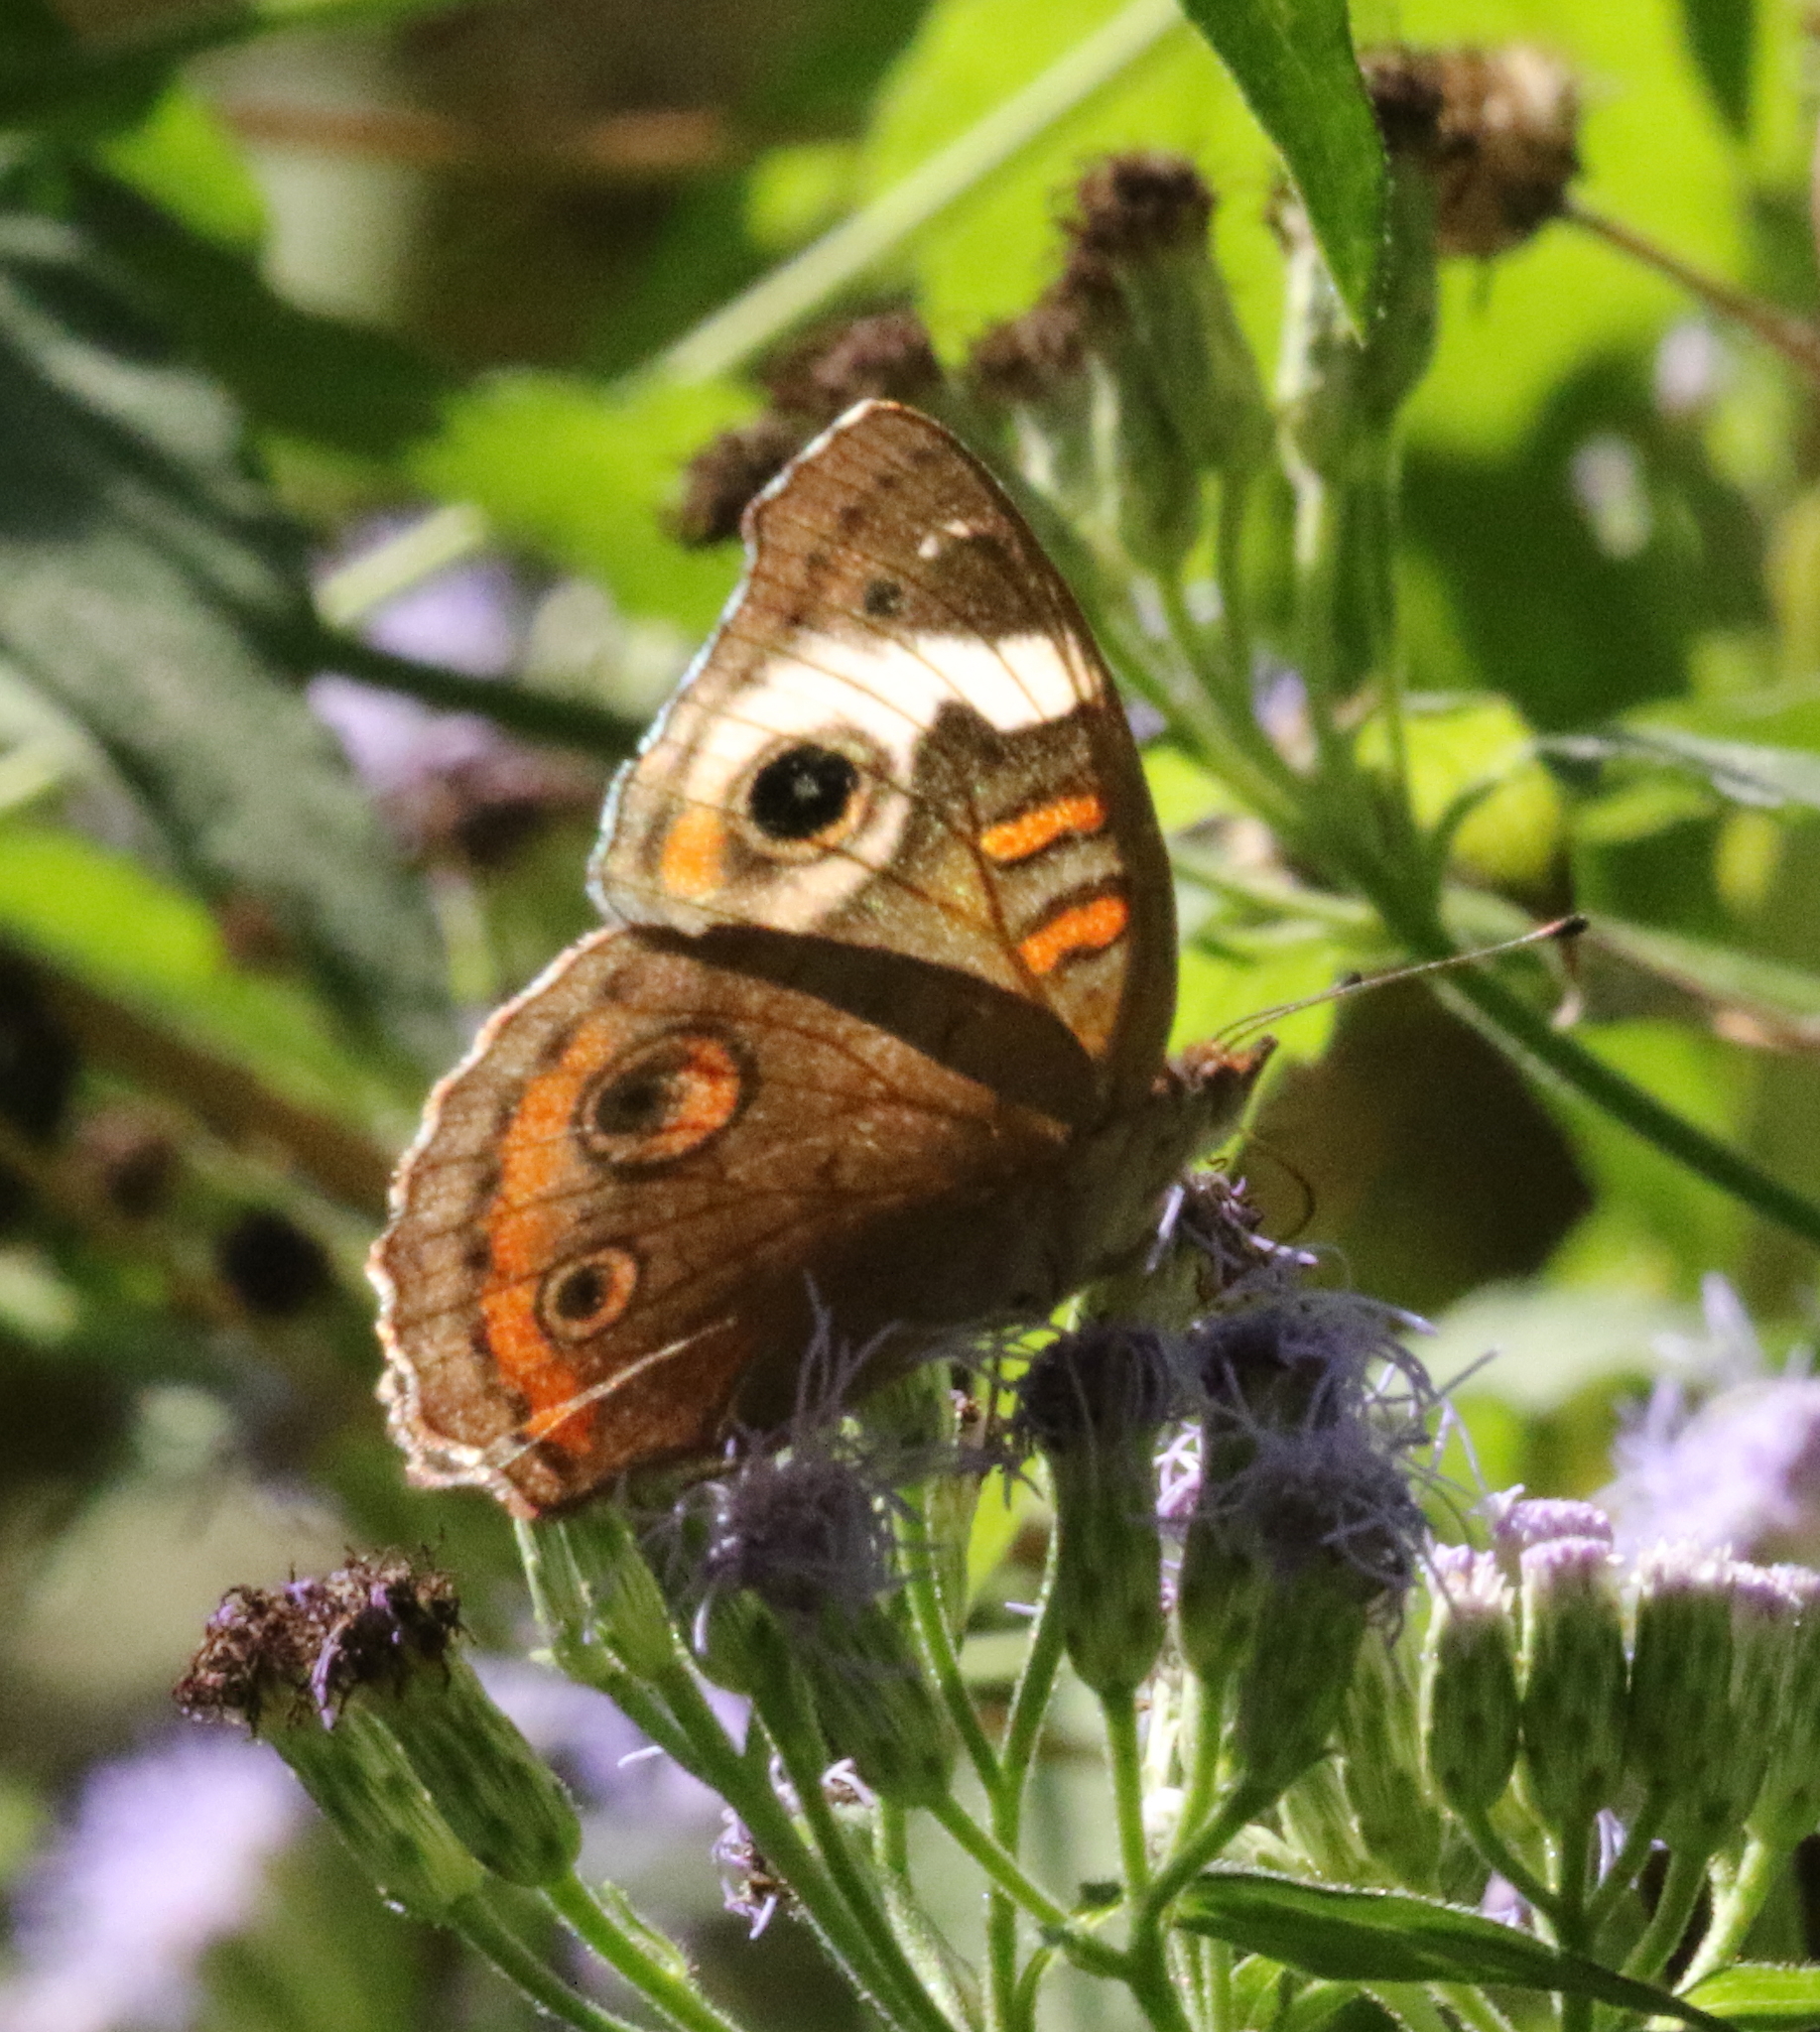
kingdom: Animalia
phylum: Arthropoda
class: Insecta
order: Lepidoptera
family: Nymphalidae
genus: Junonia
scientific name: Junonia coenia
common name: Common buckeye
